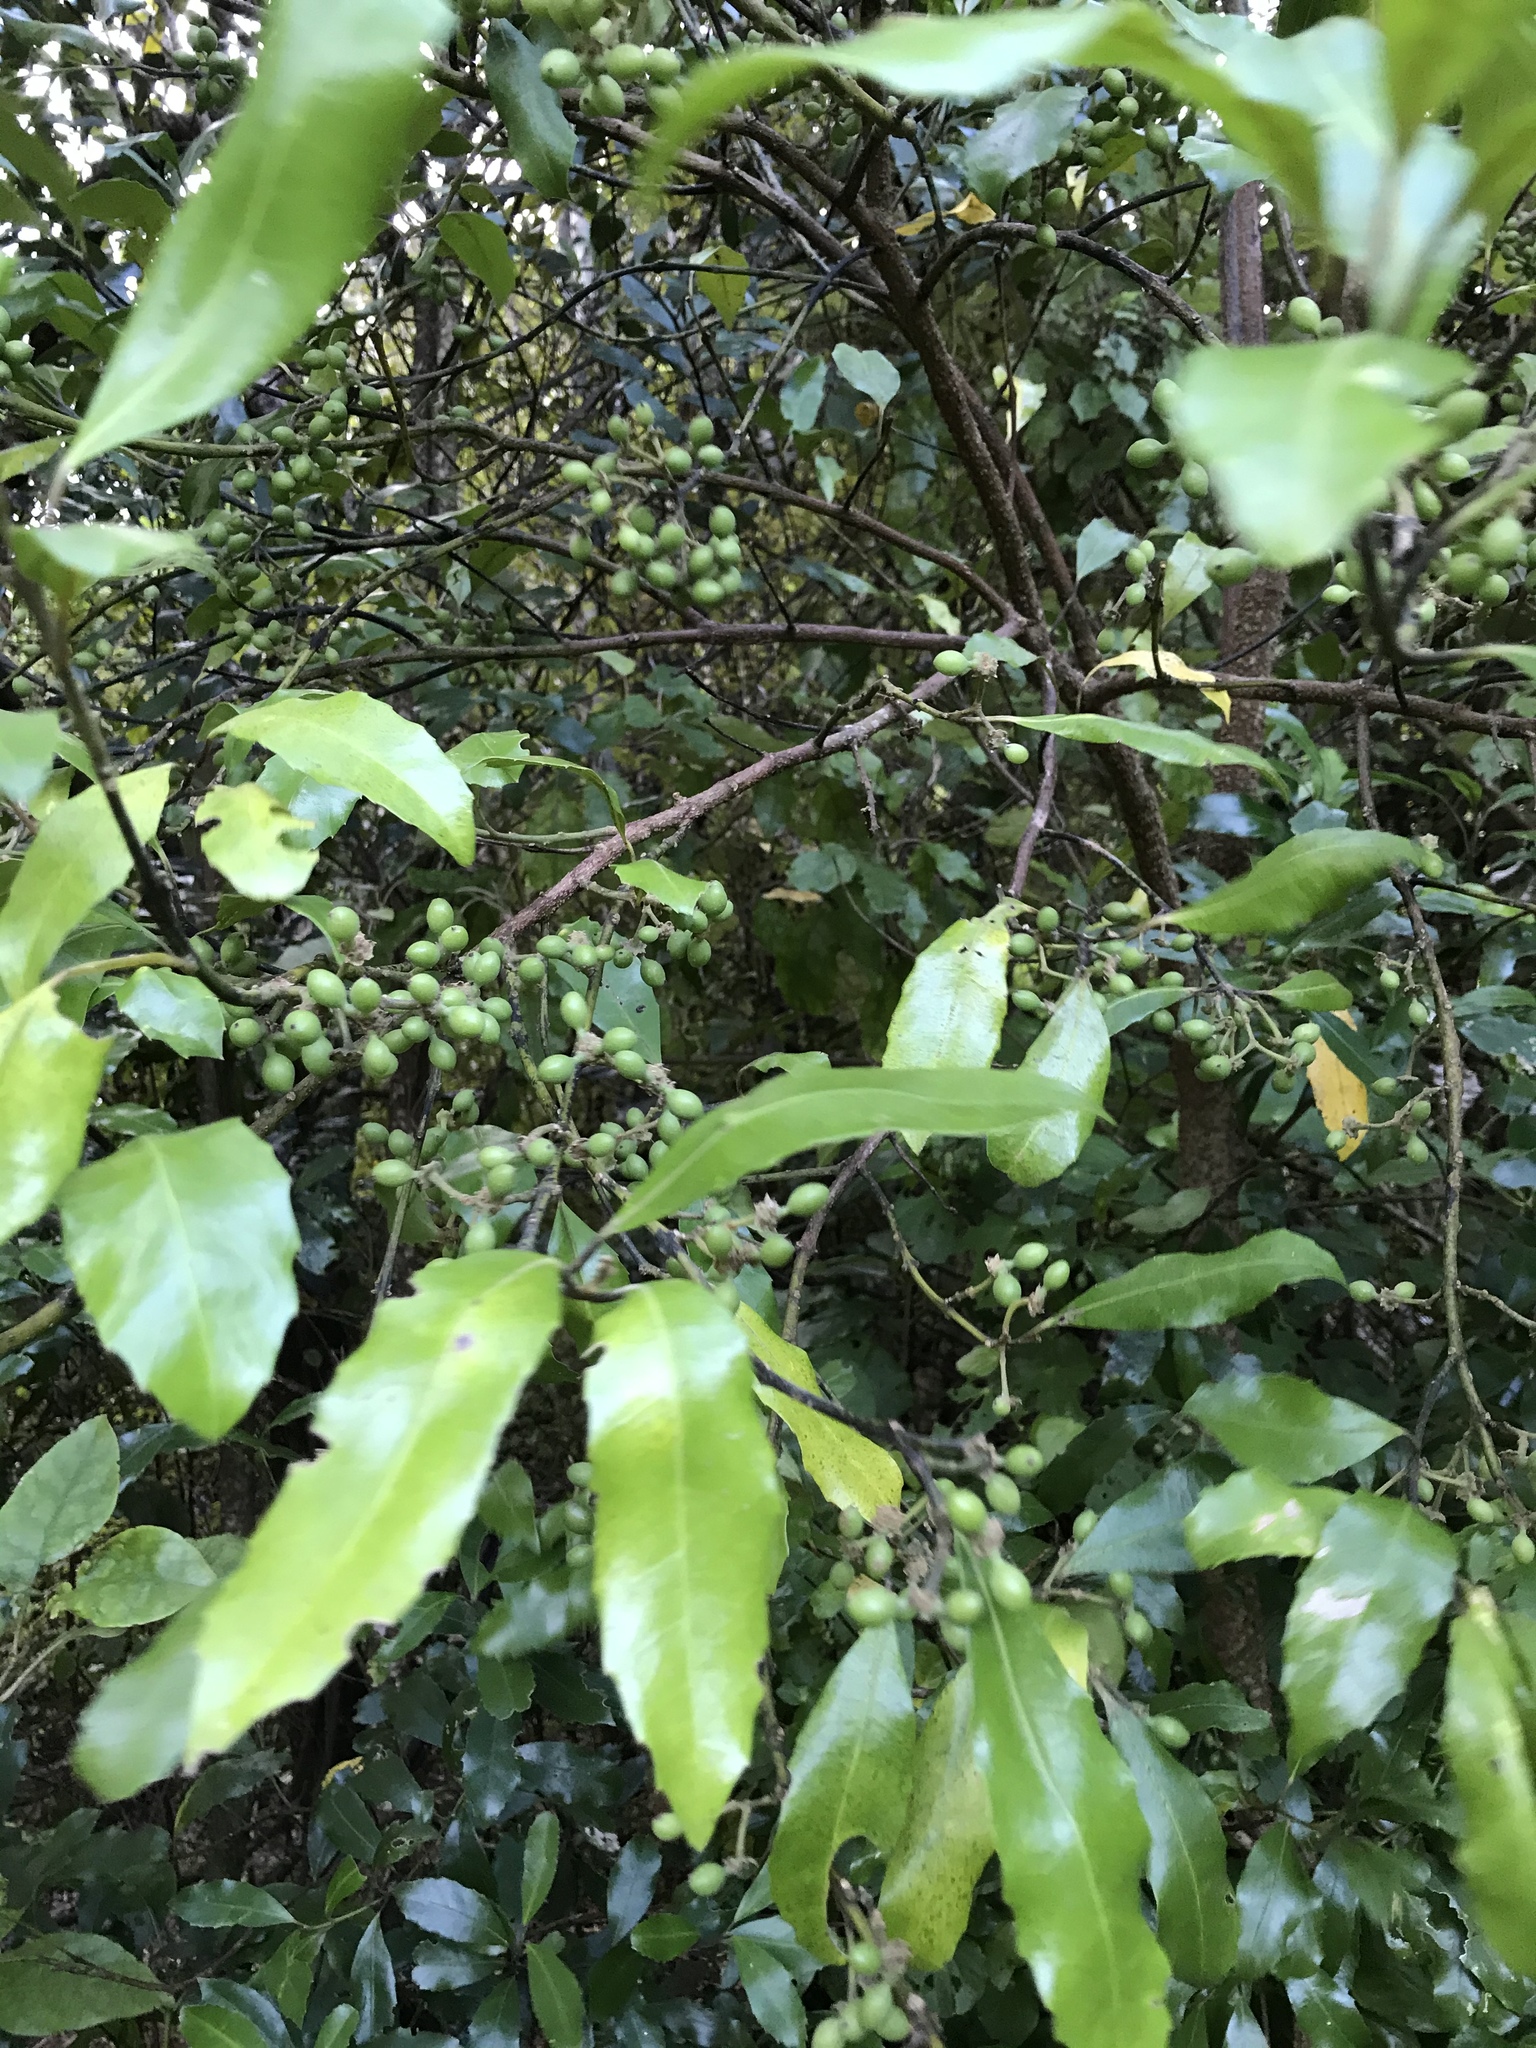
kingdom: Plantae
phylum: Tracheophyta
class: Magnoliopsida
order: Laurales
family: Monimiaceae
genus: Hedycarya
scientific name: Hedycarya arborea
